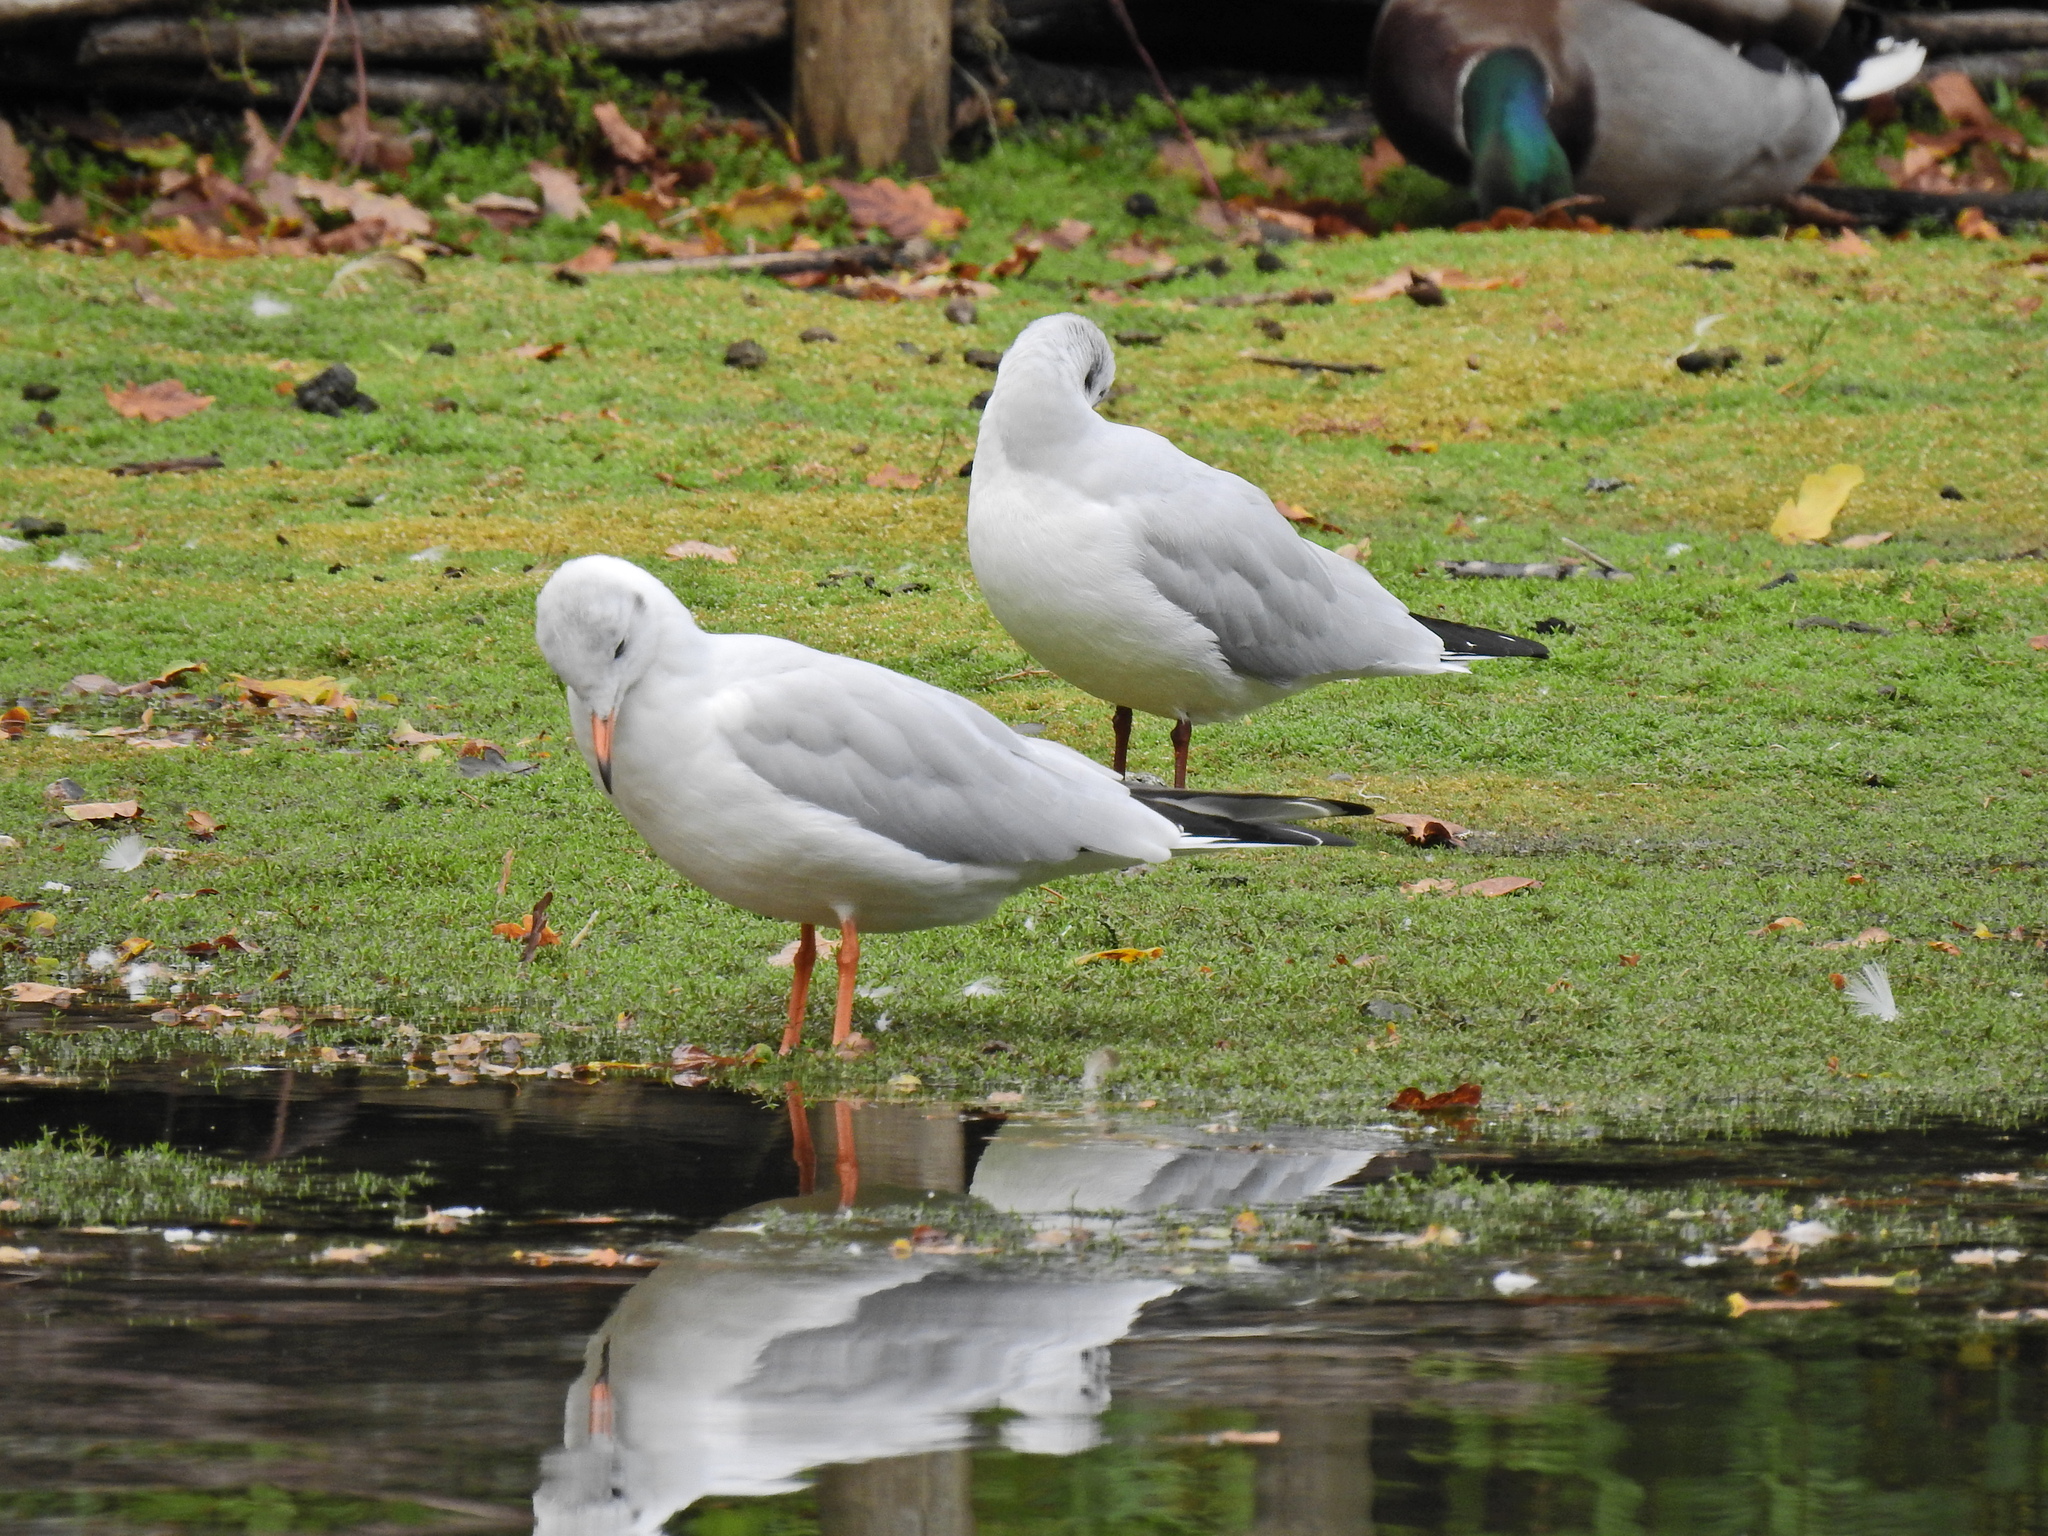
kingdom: Animalia
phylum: Chordata
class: Aves
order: Charadriiformes
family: Laridae
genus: Chroicocephalus
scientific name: Chroicocephalus ridibundus
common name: Black-headed gull
